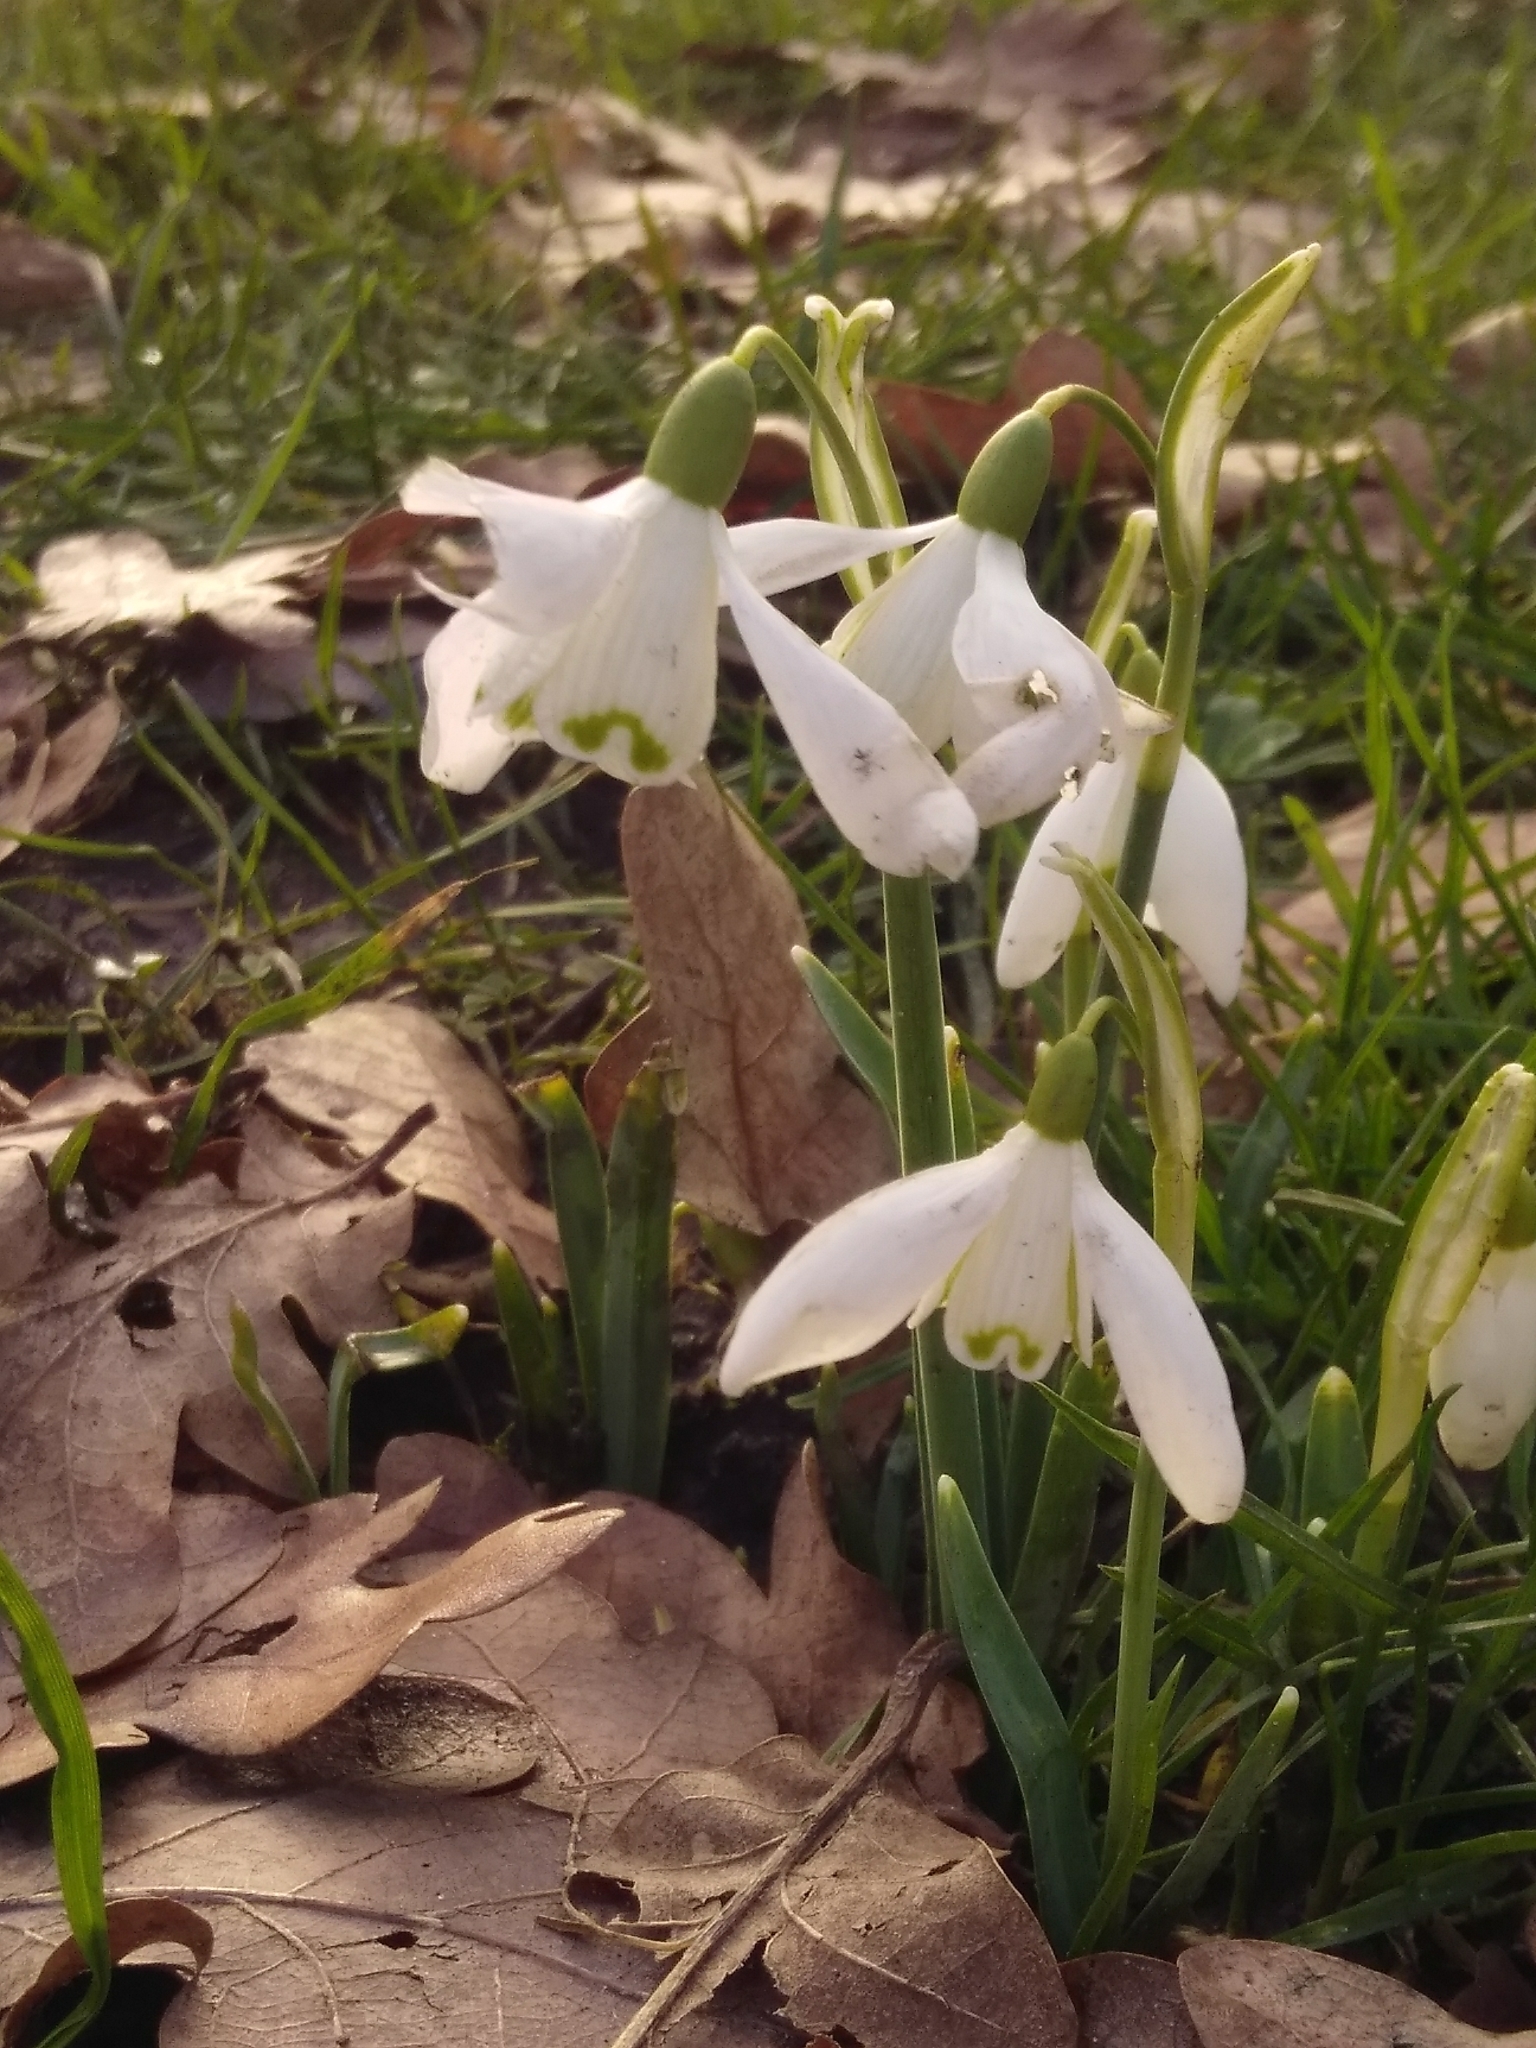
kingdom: Plantae
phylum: Tracheophyta
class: Liliopsida
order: Asparagales
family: Amaryllidaceae
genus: Galanthus
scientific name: Galanthus nivalis
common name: Snowdrop
